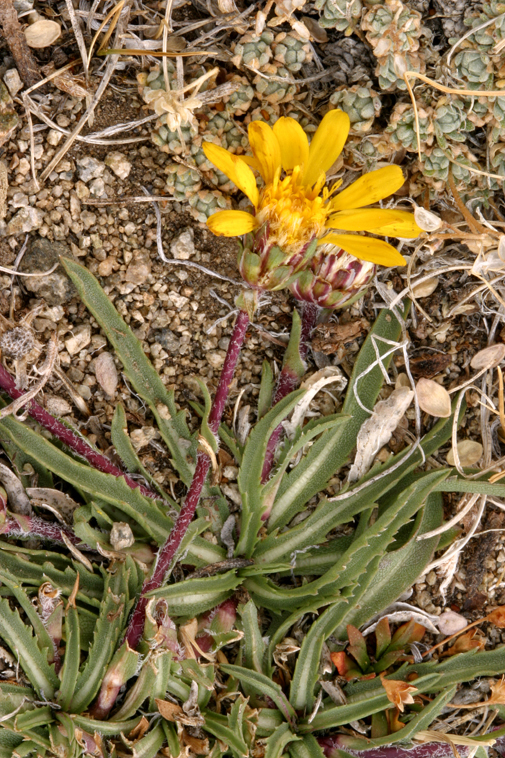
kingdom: Plantae
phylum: Tracheophyta
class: Magnoliopsida
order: Asterales
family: Asteraceae
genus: Pyrrocoma
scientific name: Pyrrocoma apargioides
